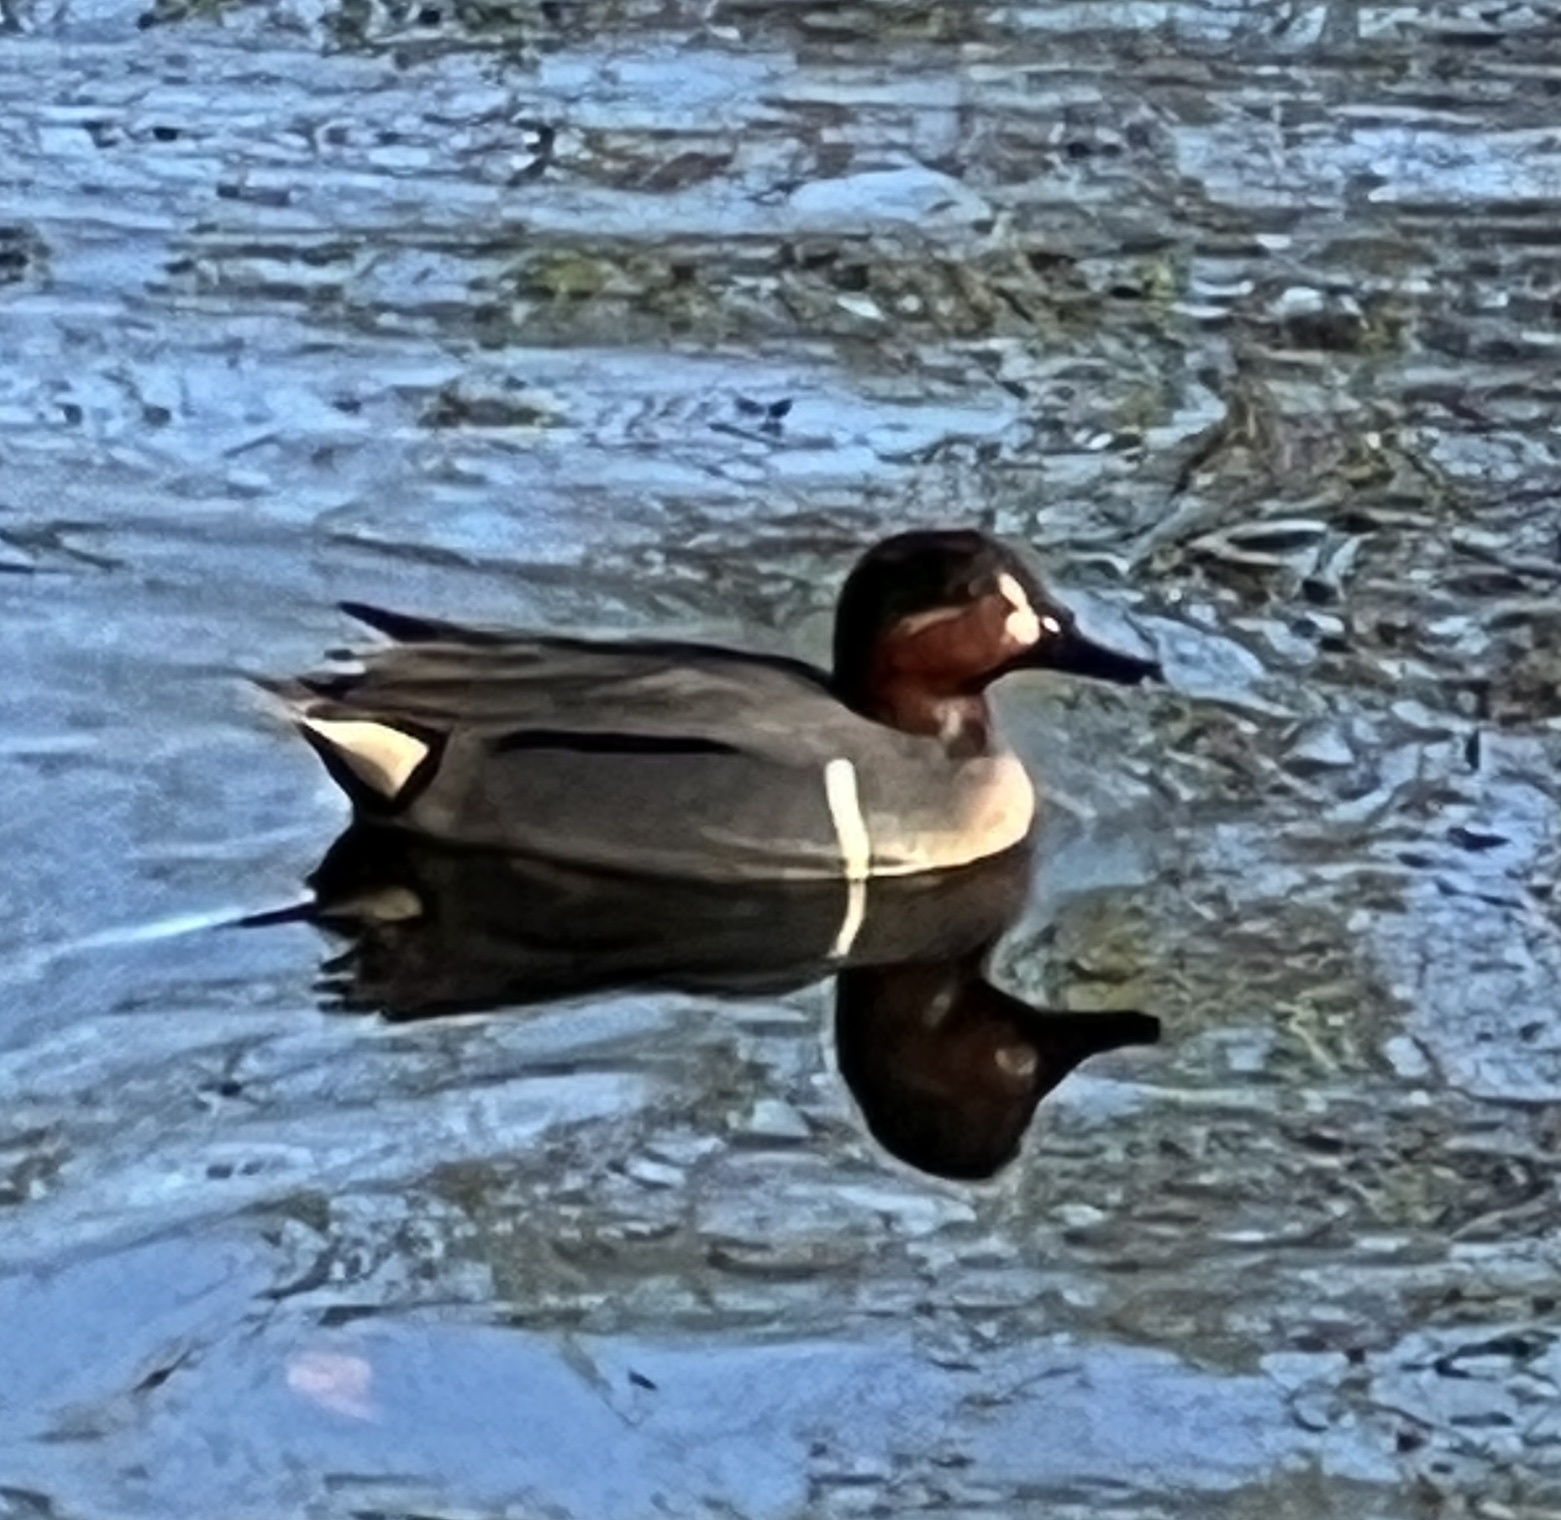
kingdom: Animalia
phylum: Chordata
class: Aves
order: Anseriformes
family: Anatidae
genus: Anas
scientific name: Anas crecca
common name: Eurasian teal
